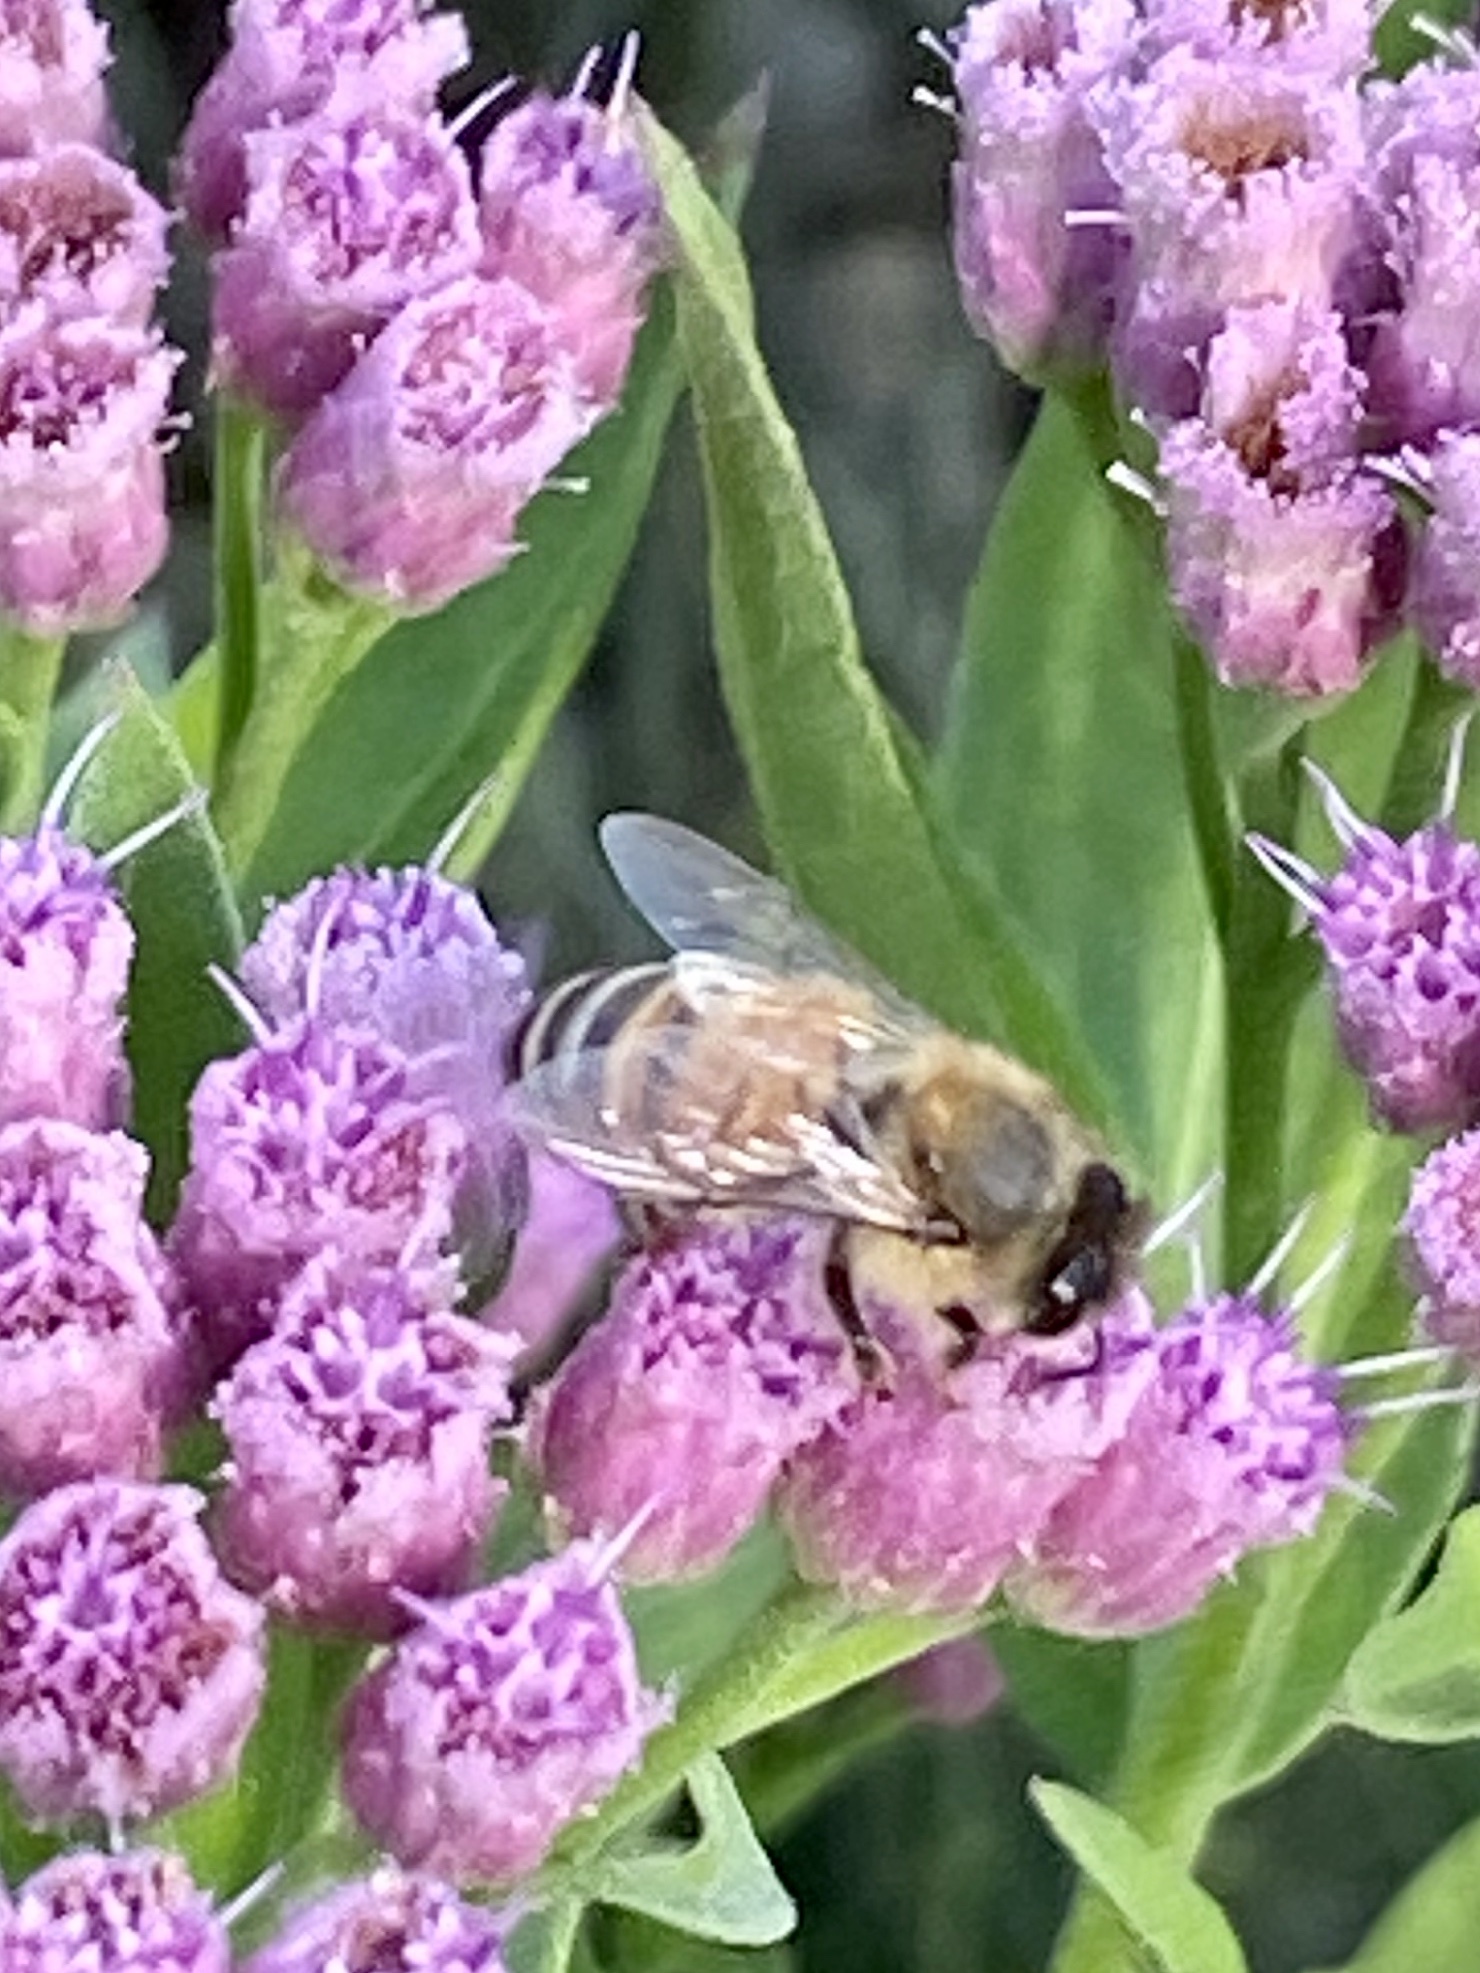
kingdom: Animalia
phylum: Arthropoda
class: Insecta
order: Hymenoptera
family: Apidae
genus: Apis
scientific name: Apis mellifera
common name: Honey bee
